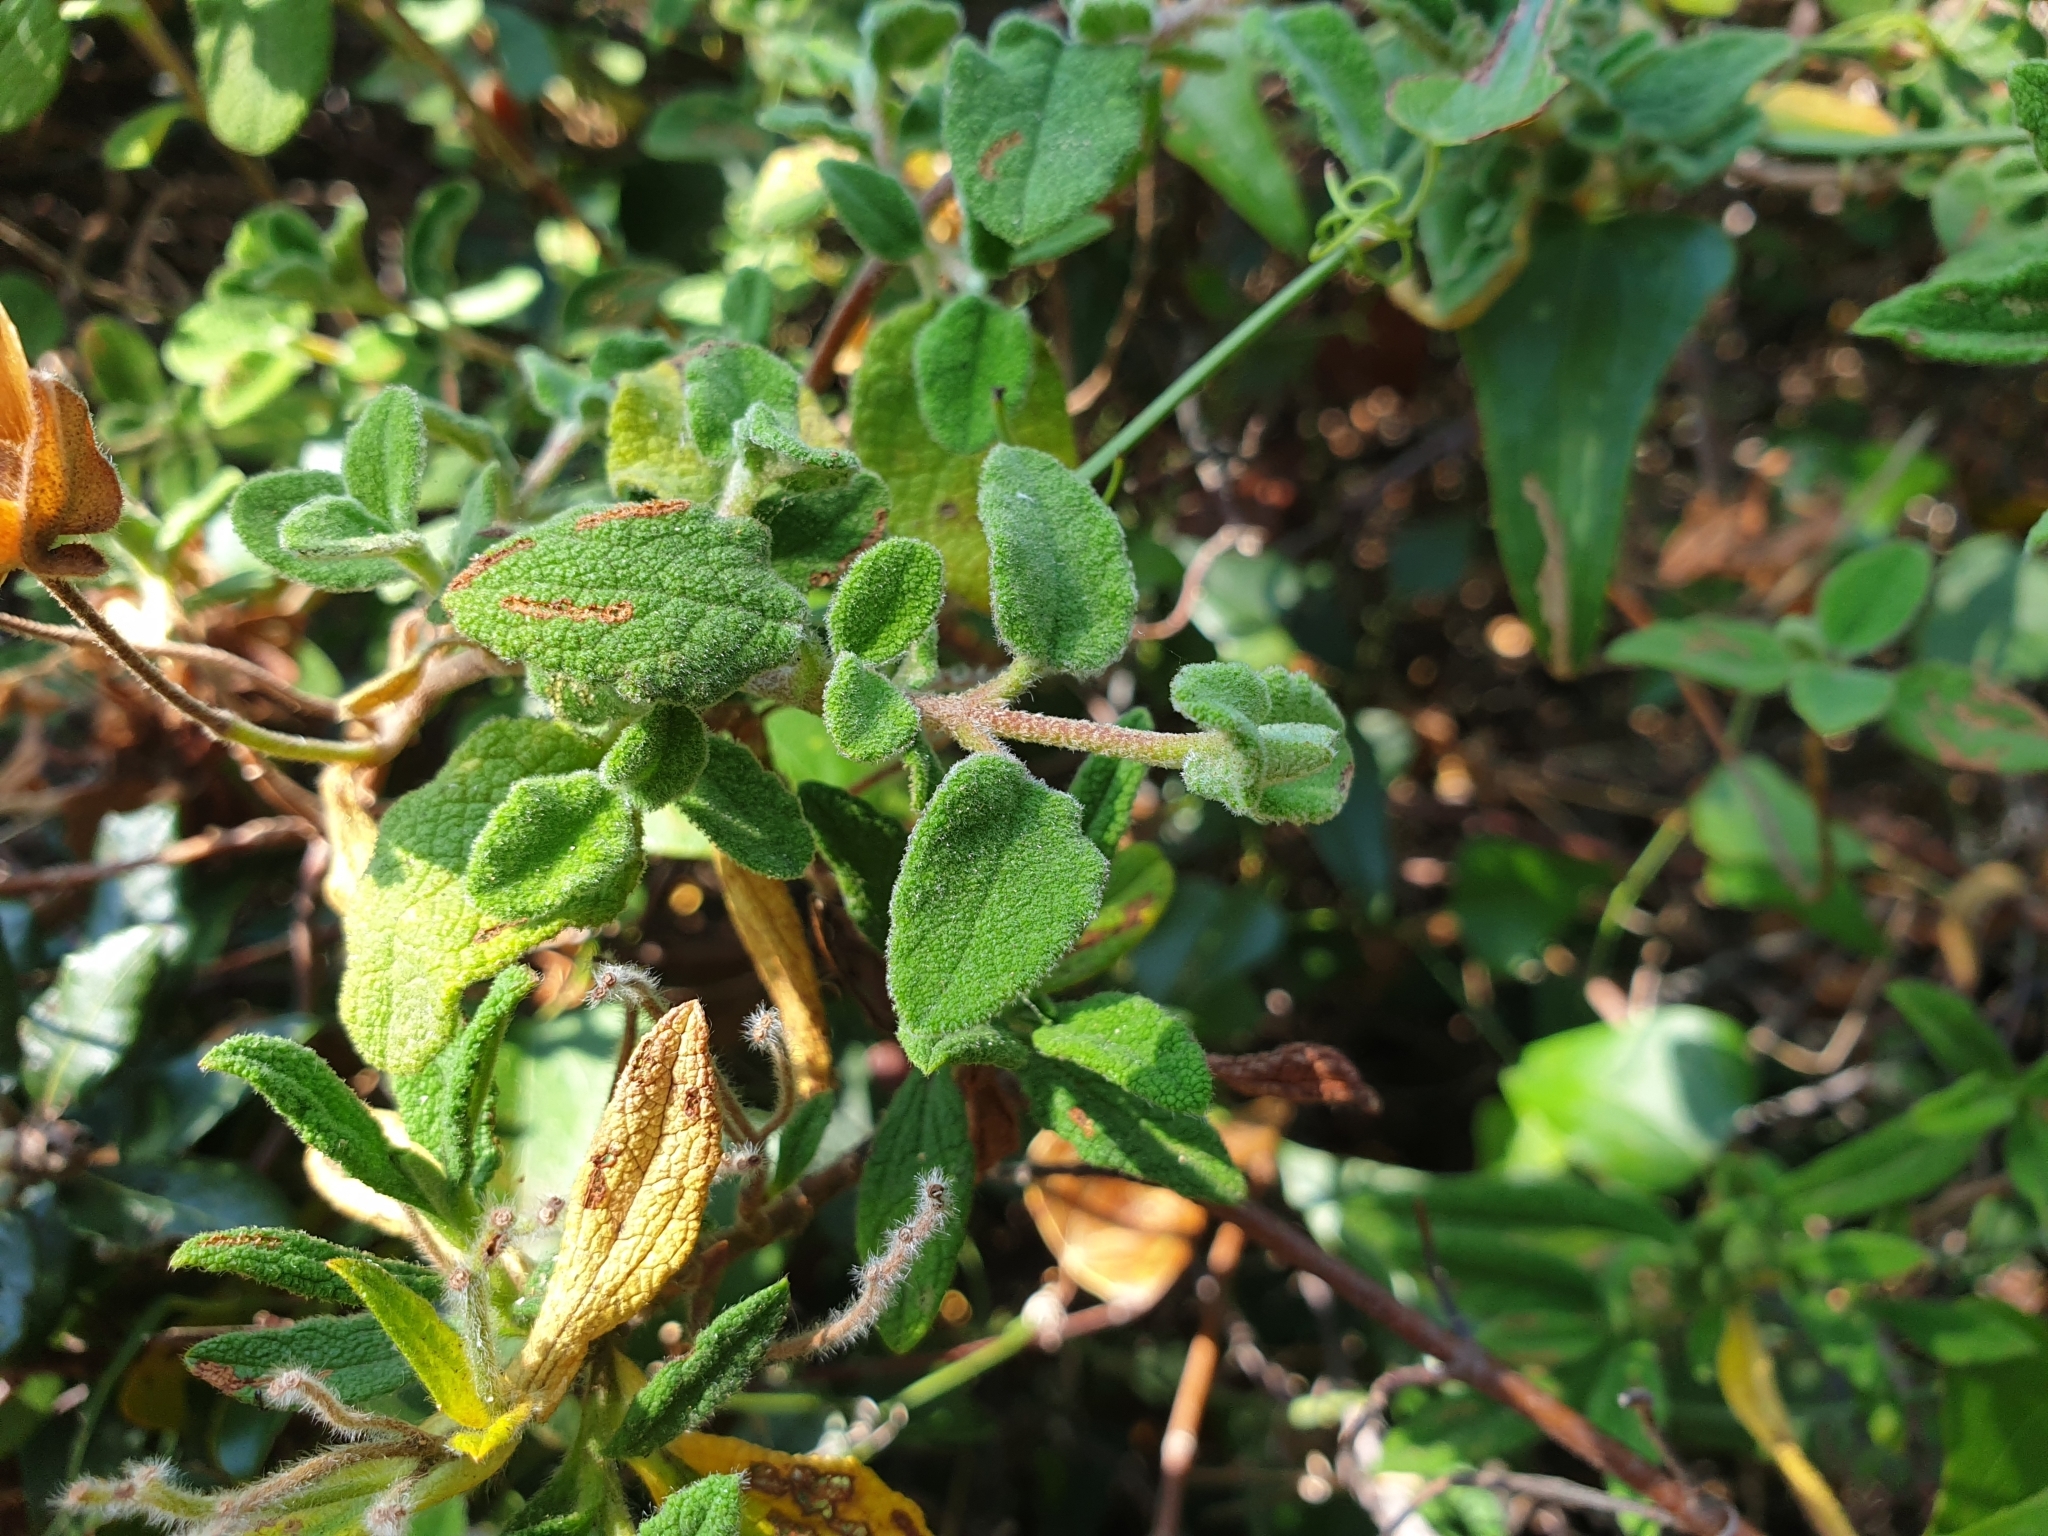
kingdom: Plantae
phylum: Tracheophyta
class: Magnoliopsida
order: Malvales
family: Cistaceae
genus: Cistus
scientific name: Cistus salviifolius
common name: Salvia cistus
